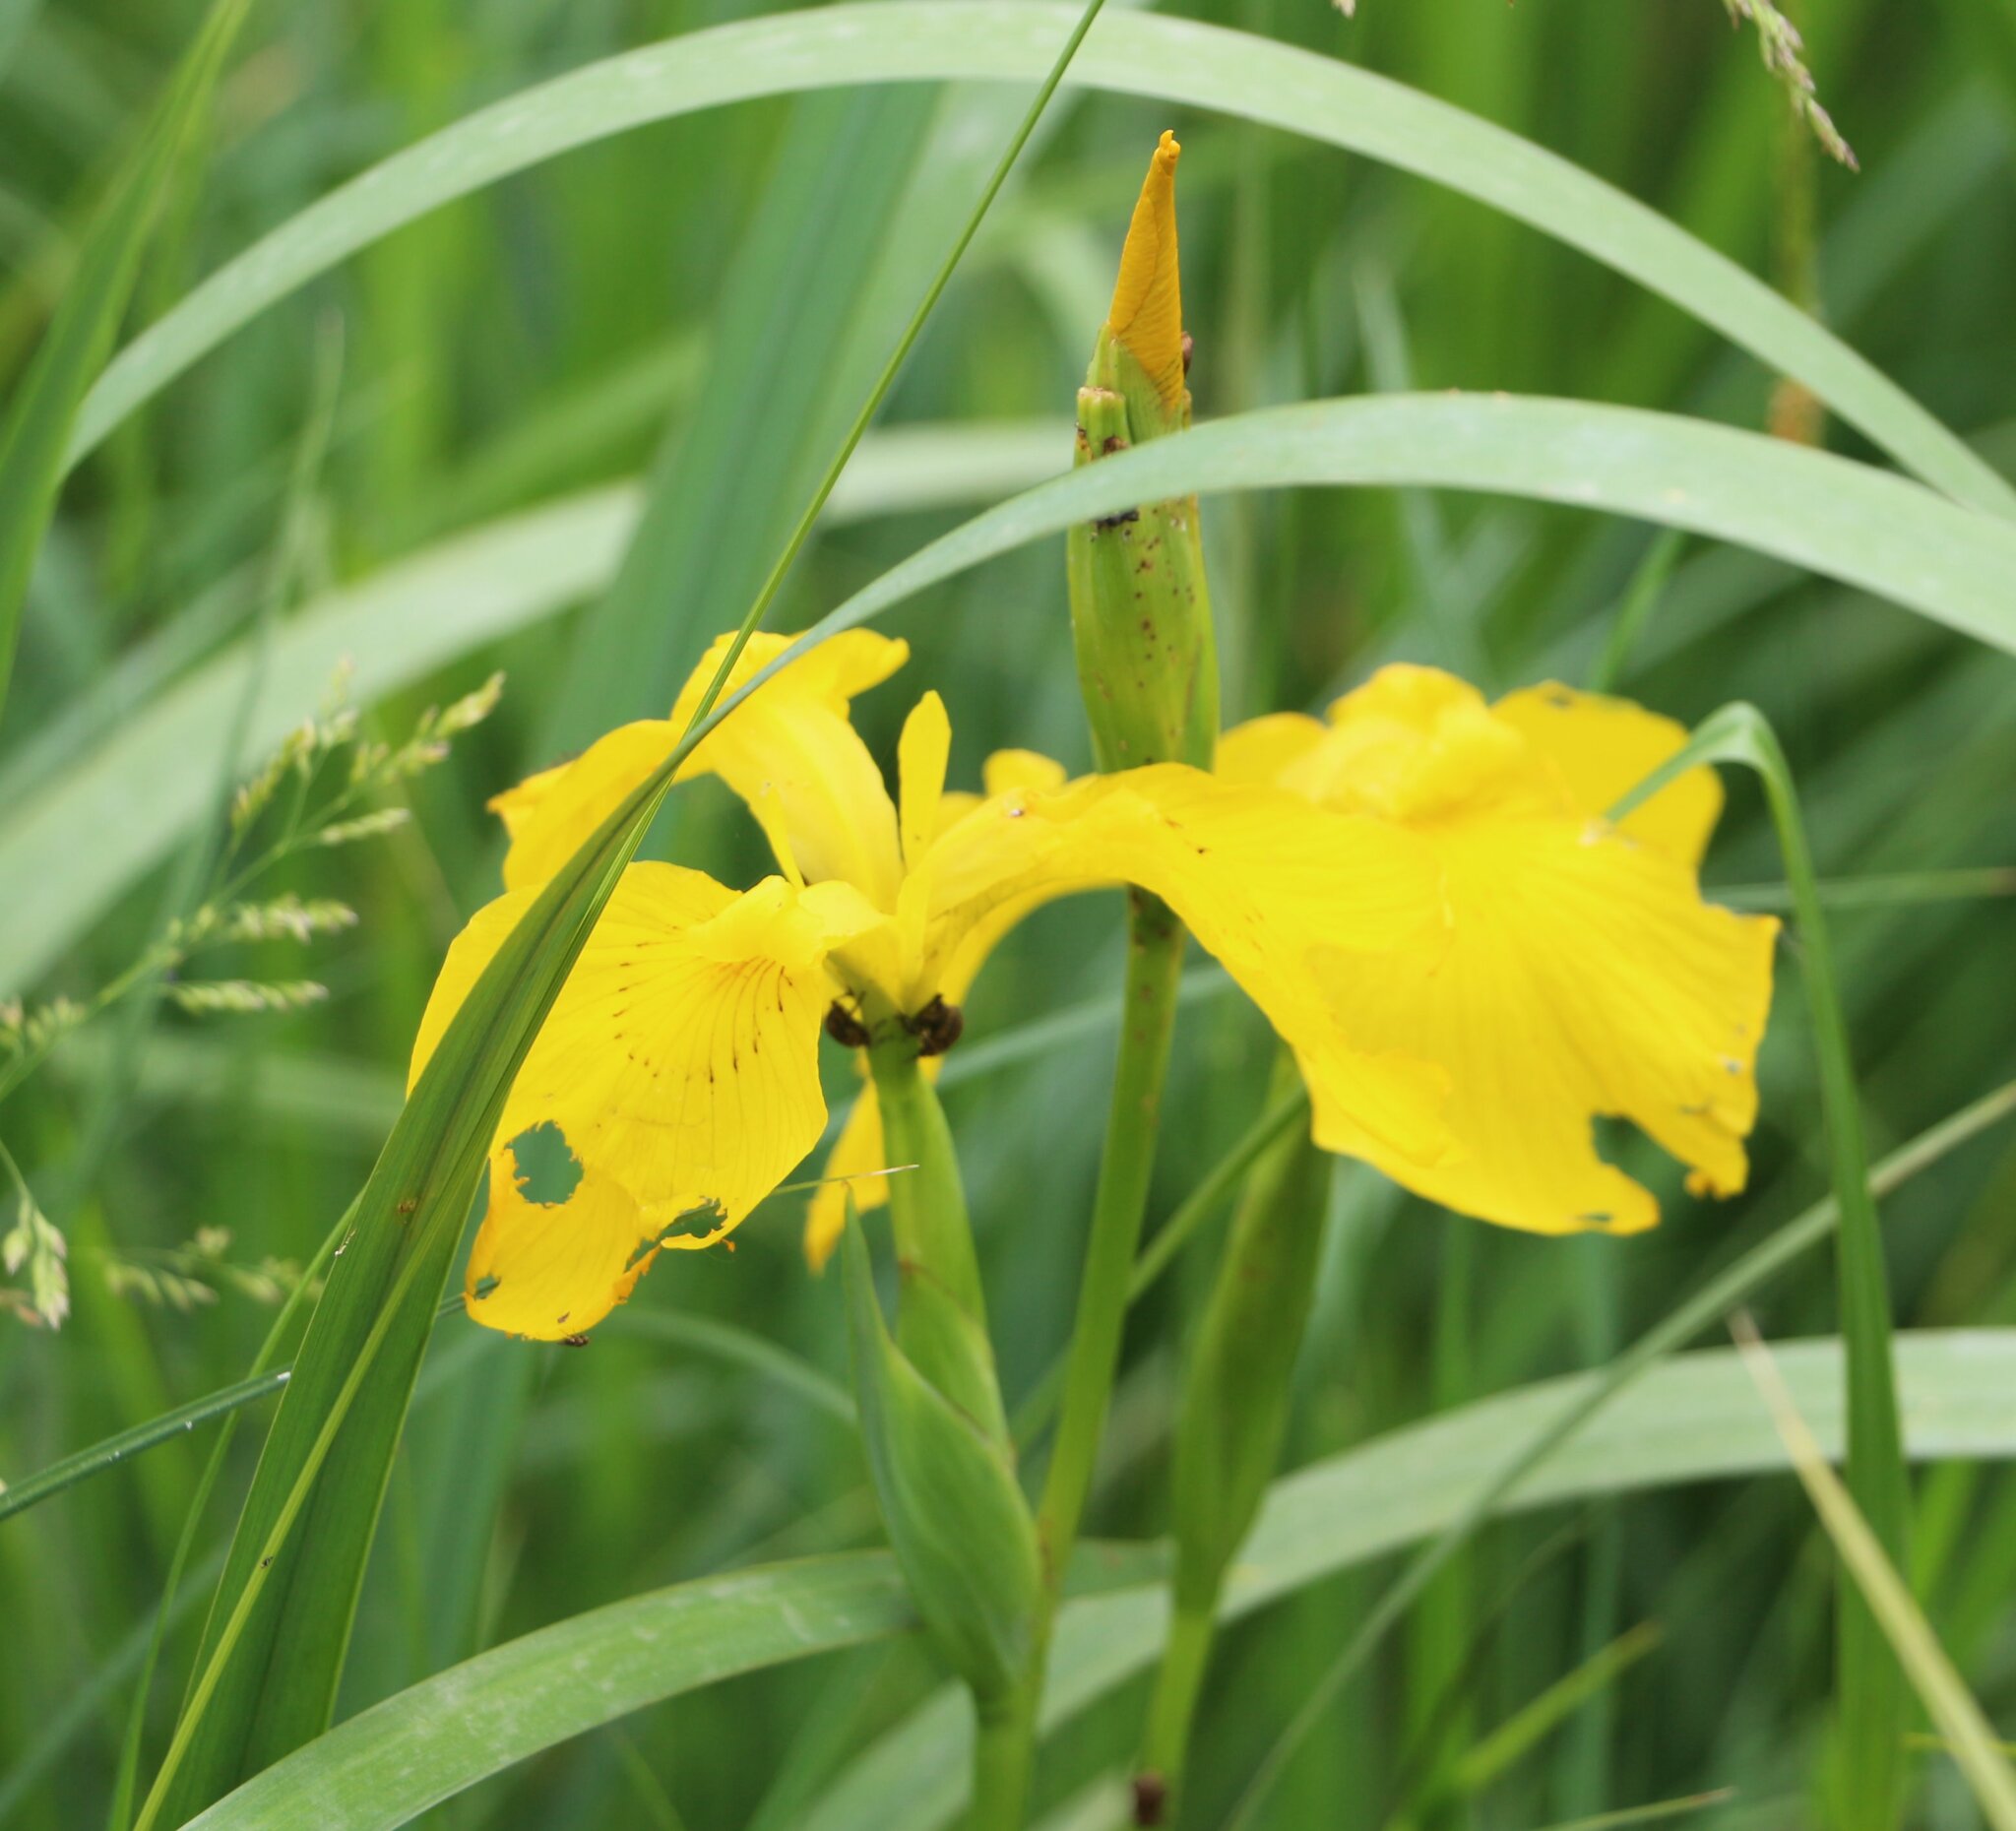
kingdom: Plantae
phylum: Tracheophyta
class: Liliopsida
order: Asparagales
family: Iridaceae
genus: Iris
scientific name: Iris pseudacorus
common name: Yellow flag
